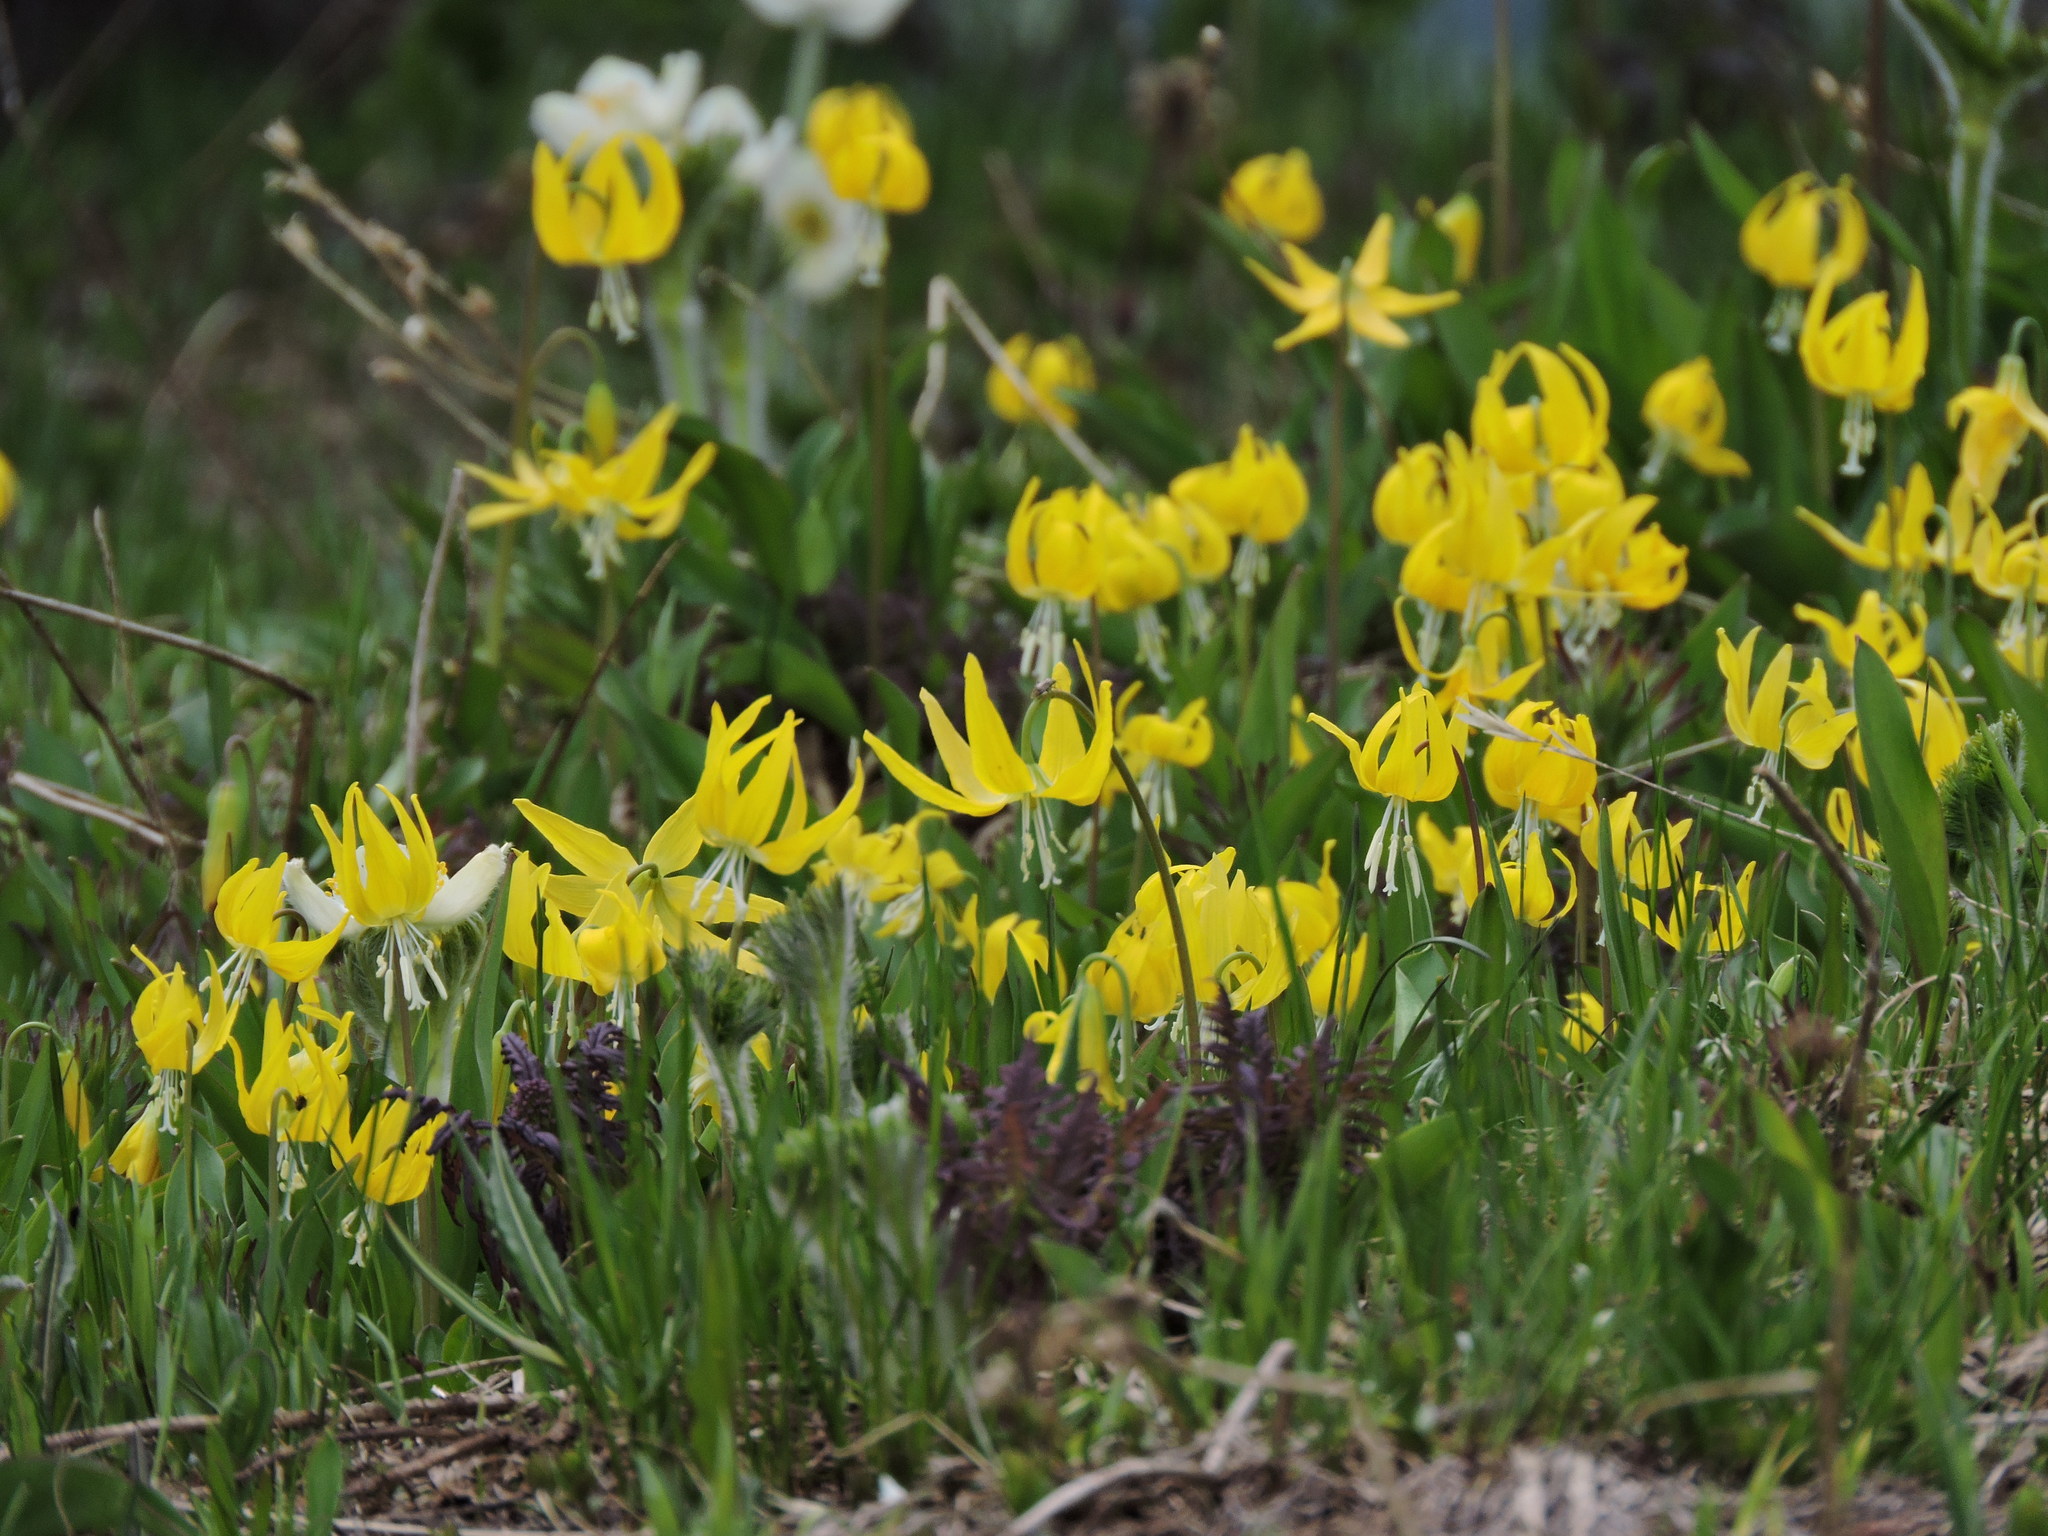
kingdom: Plantae
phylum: Tracheophyta
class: Liliopsida
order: Liliales
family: Liliaceae
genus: Erythronium
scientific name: Erythronium grandiflorum
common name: Avalanche-lily
